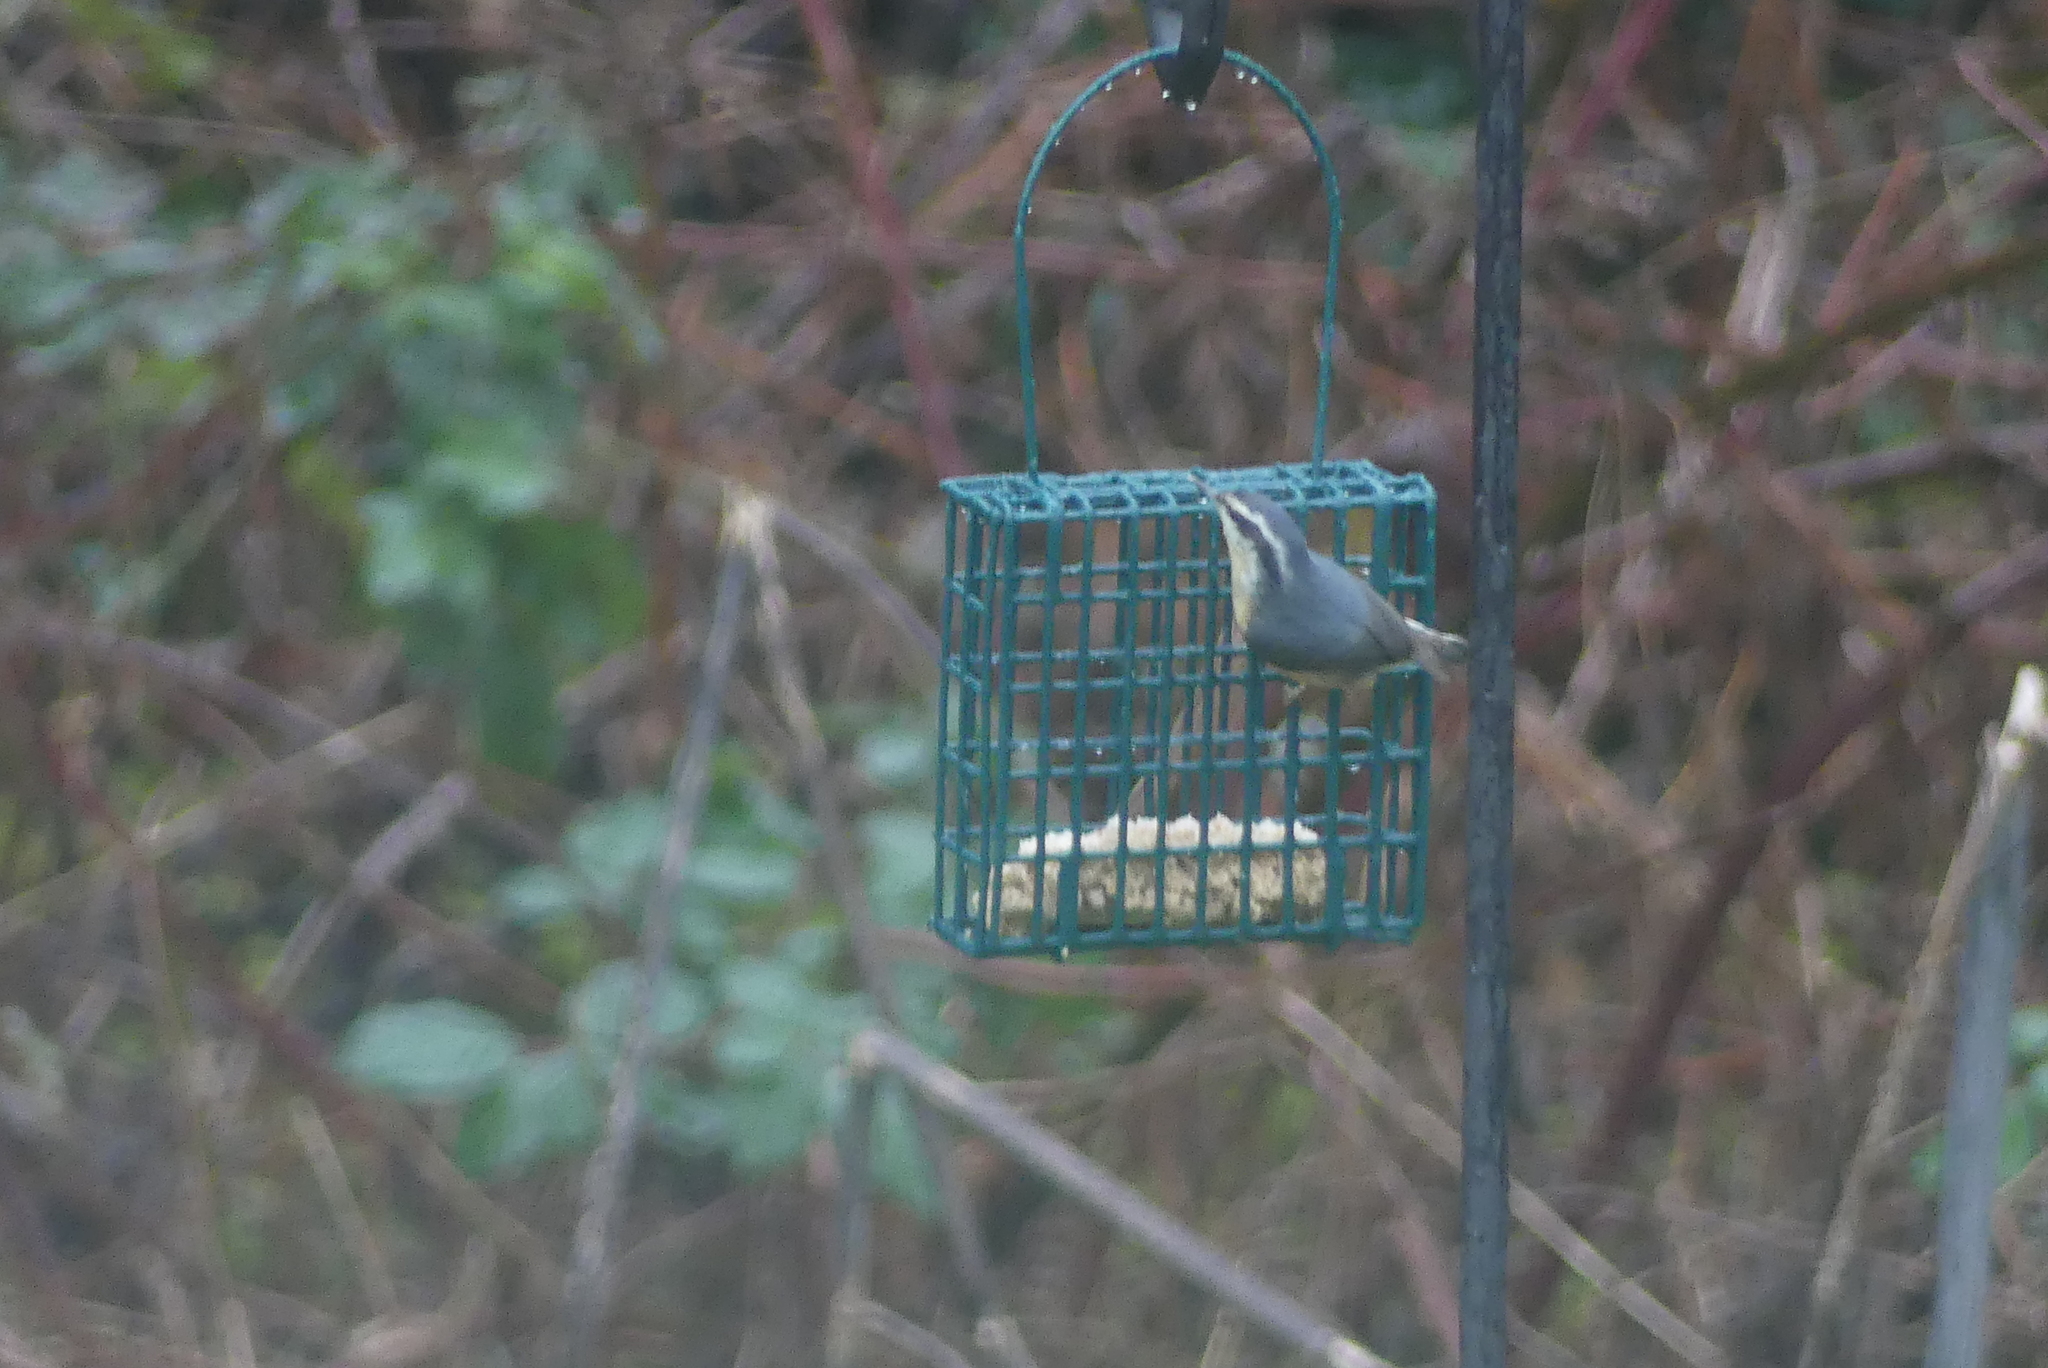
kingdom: Animalia
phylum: Chordata
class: Aves
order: Passeriformes
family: Sittidae
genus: Sitta
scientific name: Sitta canadensis
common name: Red-breasted nuthatch
